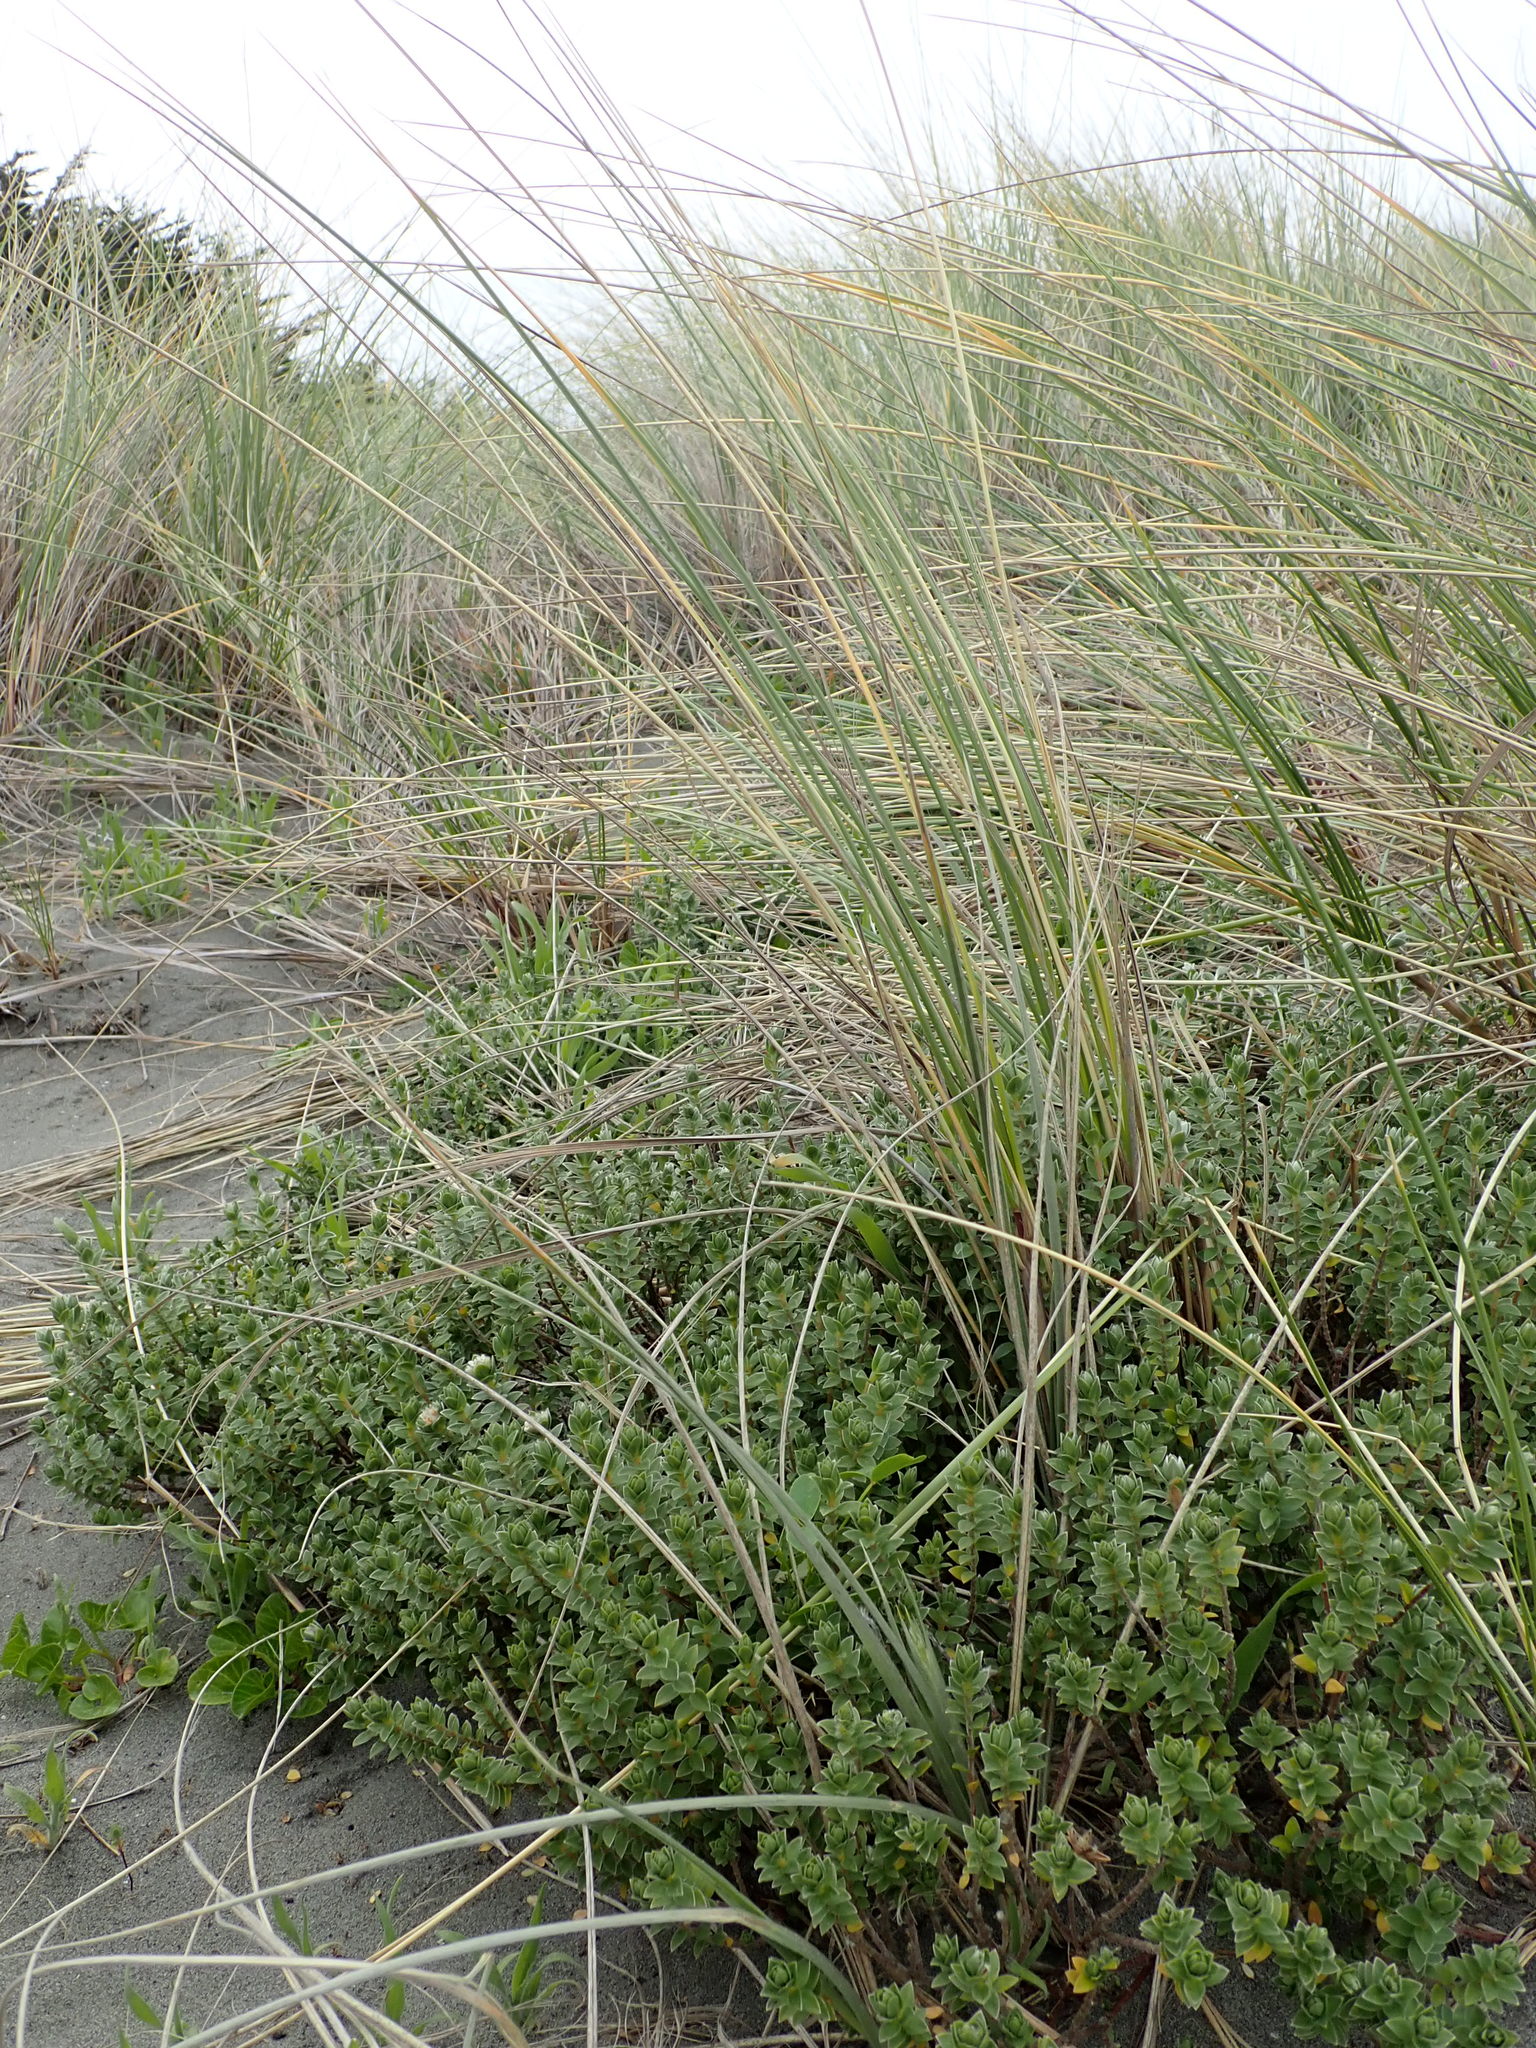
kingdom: Plantae
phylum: Tracheophyta
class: Magnoliopsida
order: Malvales
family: Thymelaeaceae
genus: Pimelea
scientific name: Pimelea villosa
